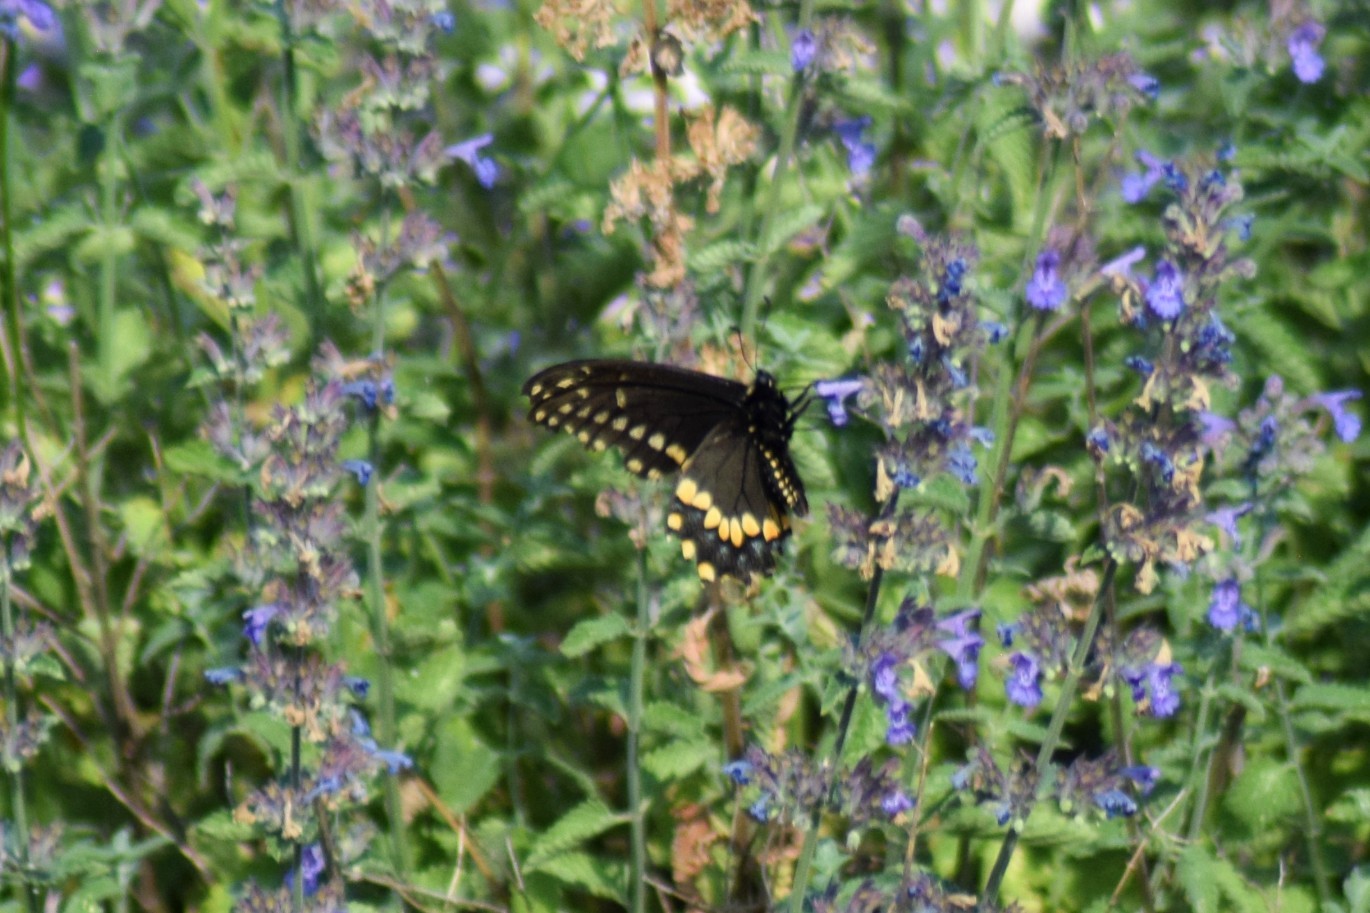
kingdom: Animalia
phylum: Arthropoda
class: Insecta
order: Lepidoptera
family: Papilionidae
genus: Papilio
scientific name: Papilio polyxenes
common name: Black swallowtail
